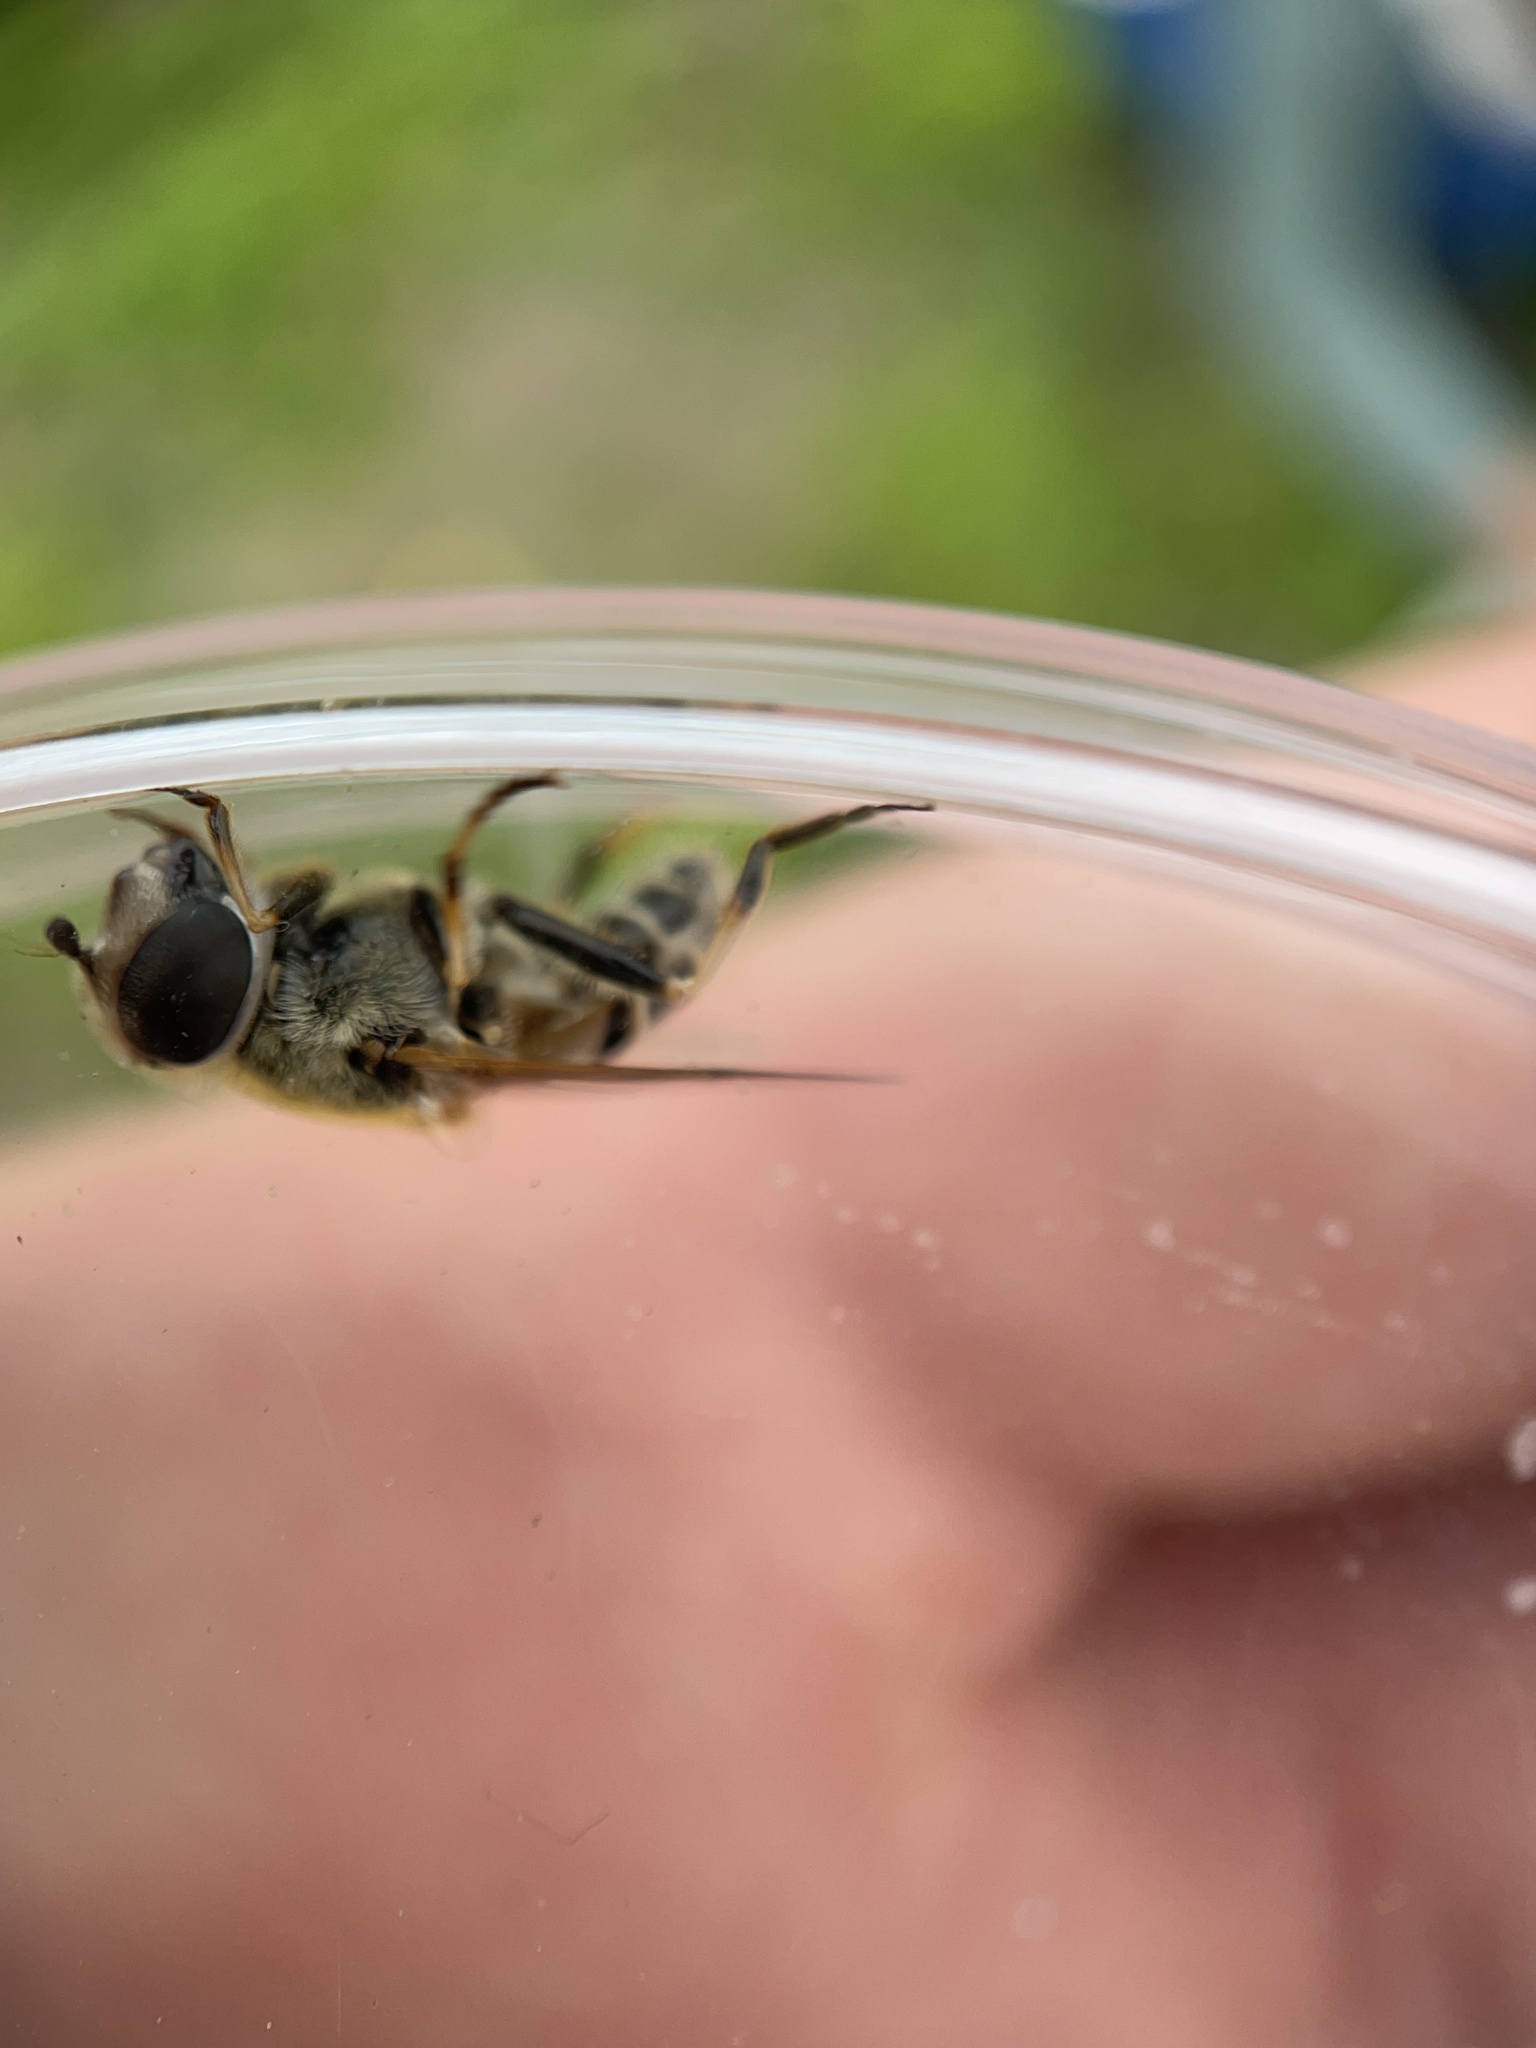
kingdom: Animalia
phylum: Arthropoda
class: Insecta
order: Diptera
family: Syrphidae
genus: Eristalis
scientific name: Eristalis stipator
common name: Yellow-shouldered drone fly
